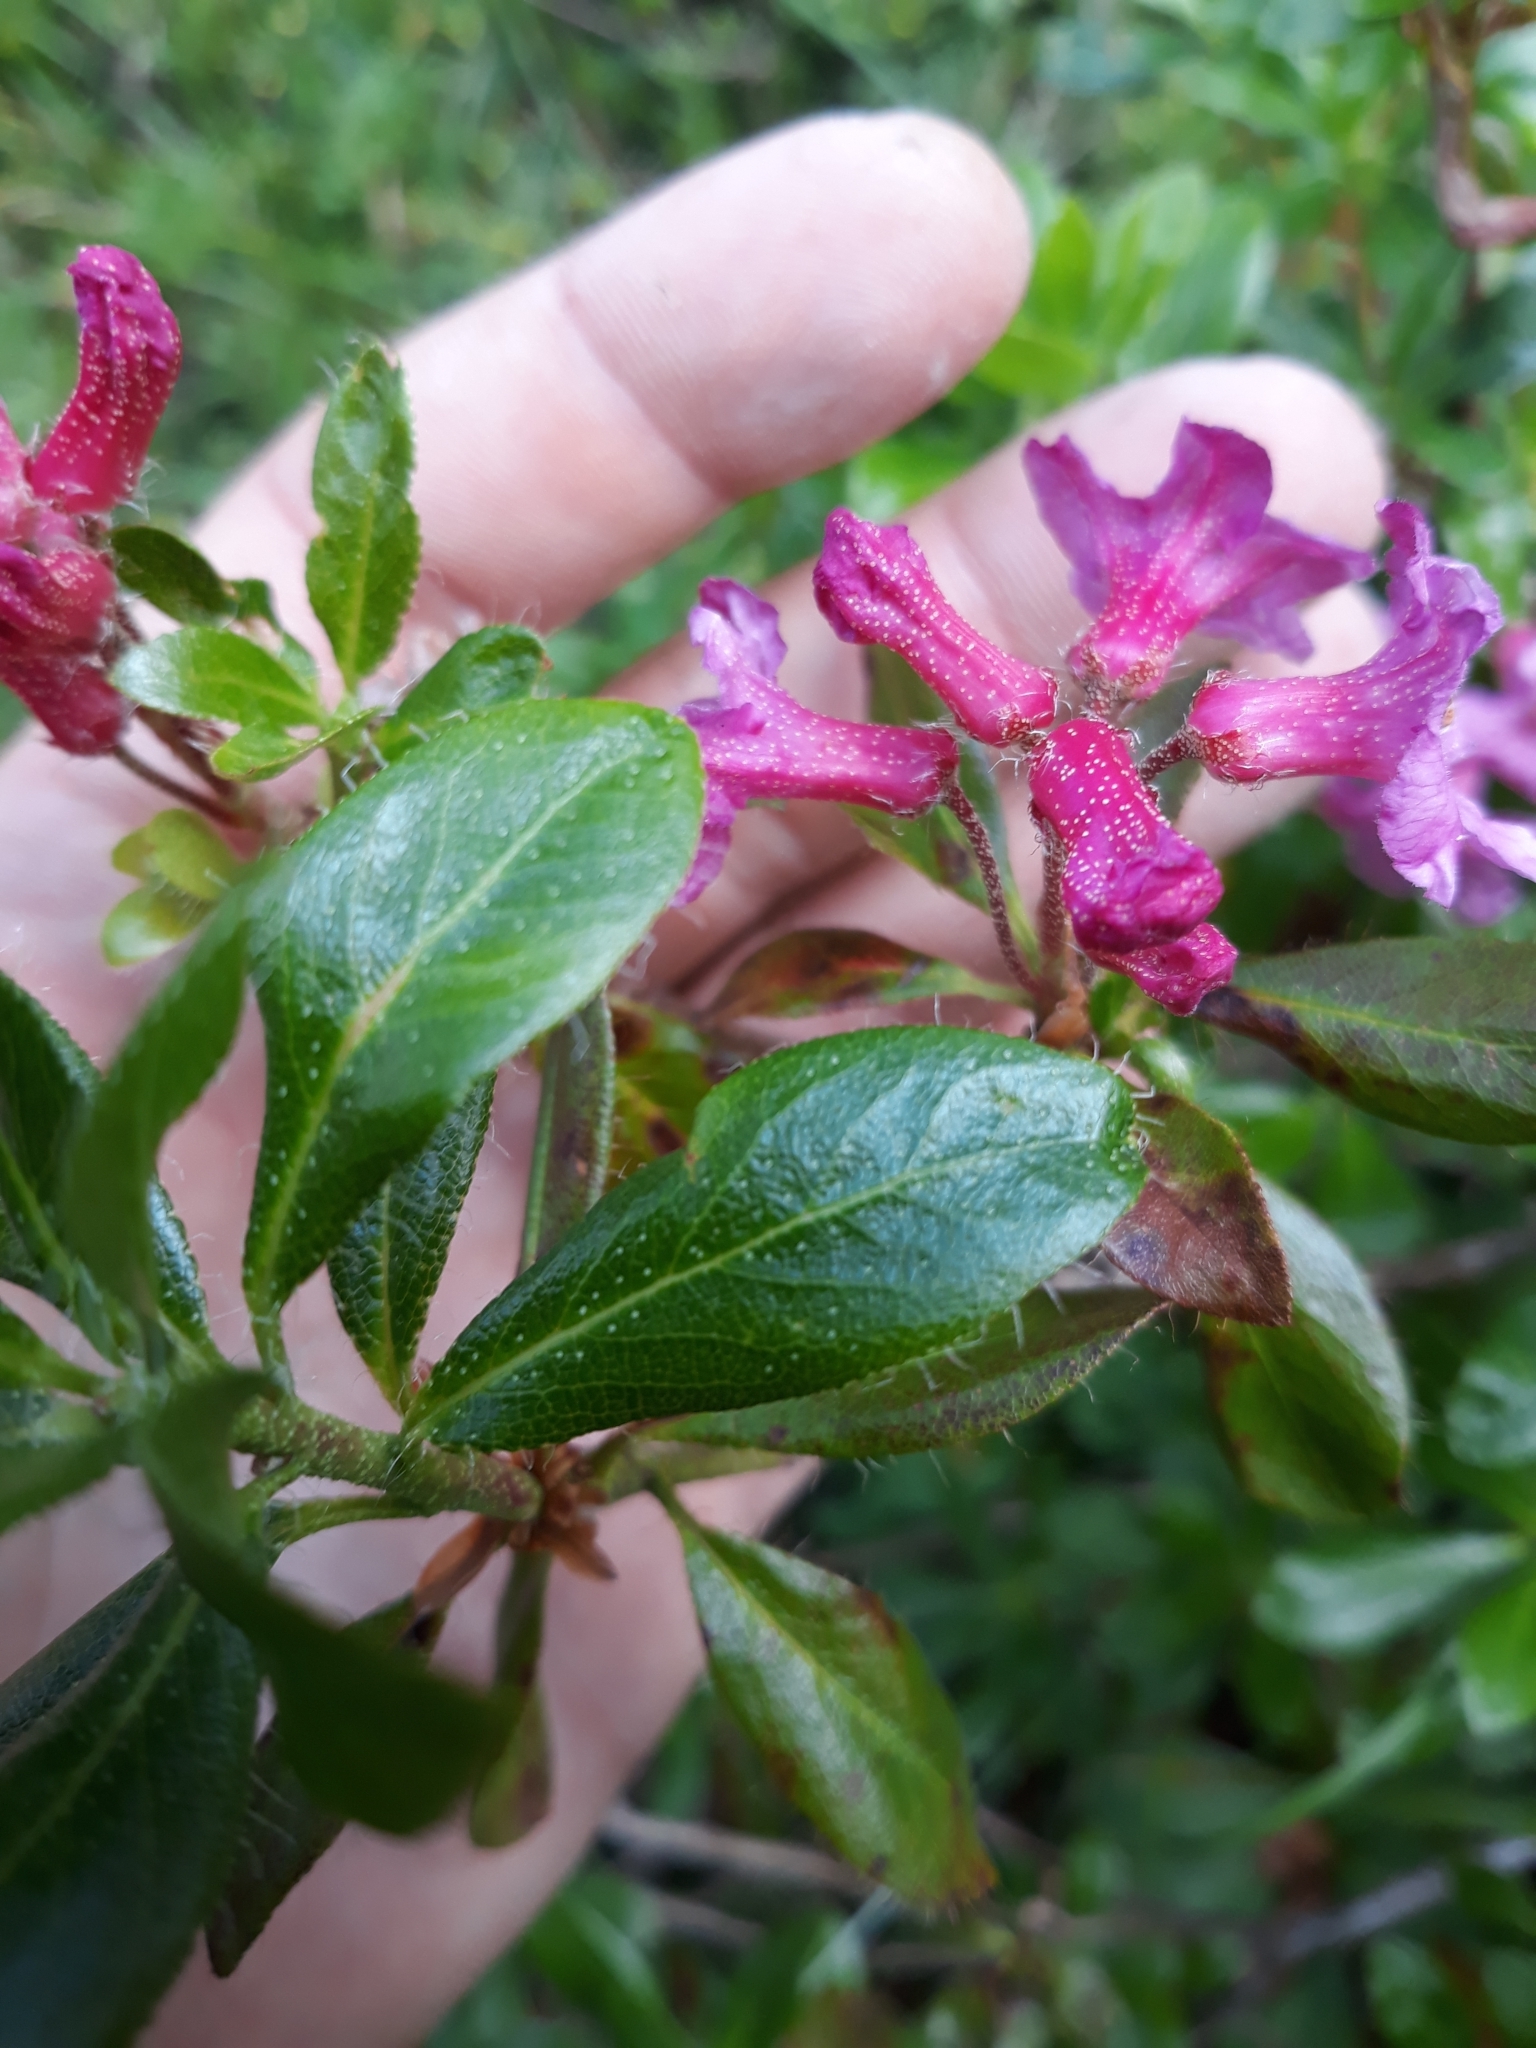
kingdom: Plantae
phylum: Tracheophyta
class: Magnoliopsida
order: Ericales
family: Ericaceae
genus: Rhododendron
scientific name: Rhododendron hirsutum
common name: Hairy alpenrose
